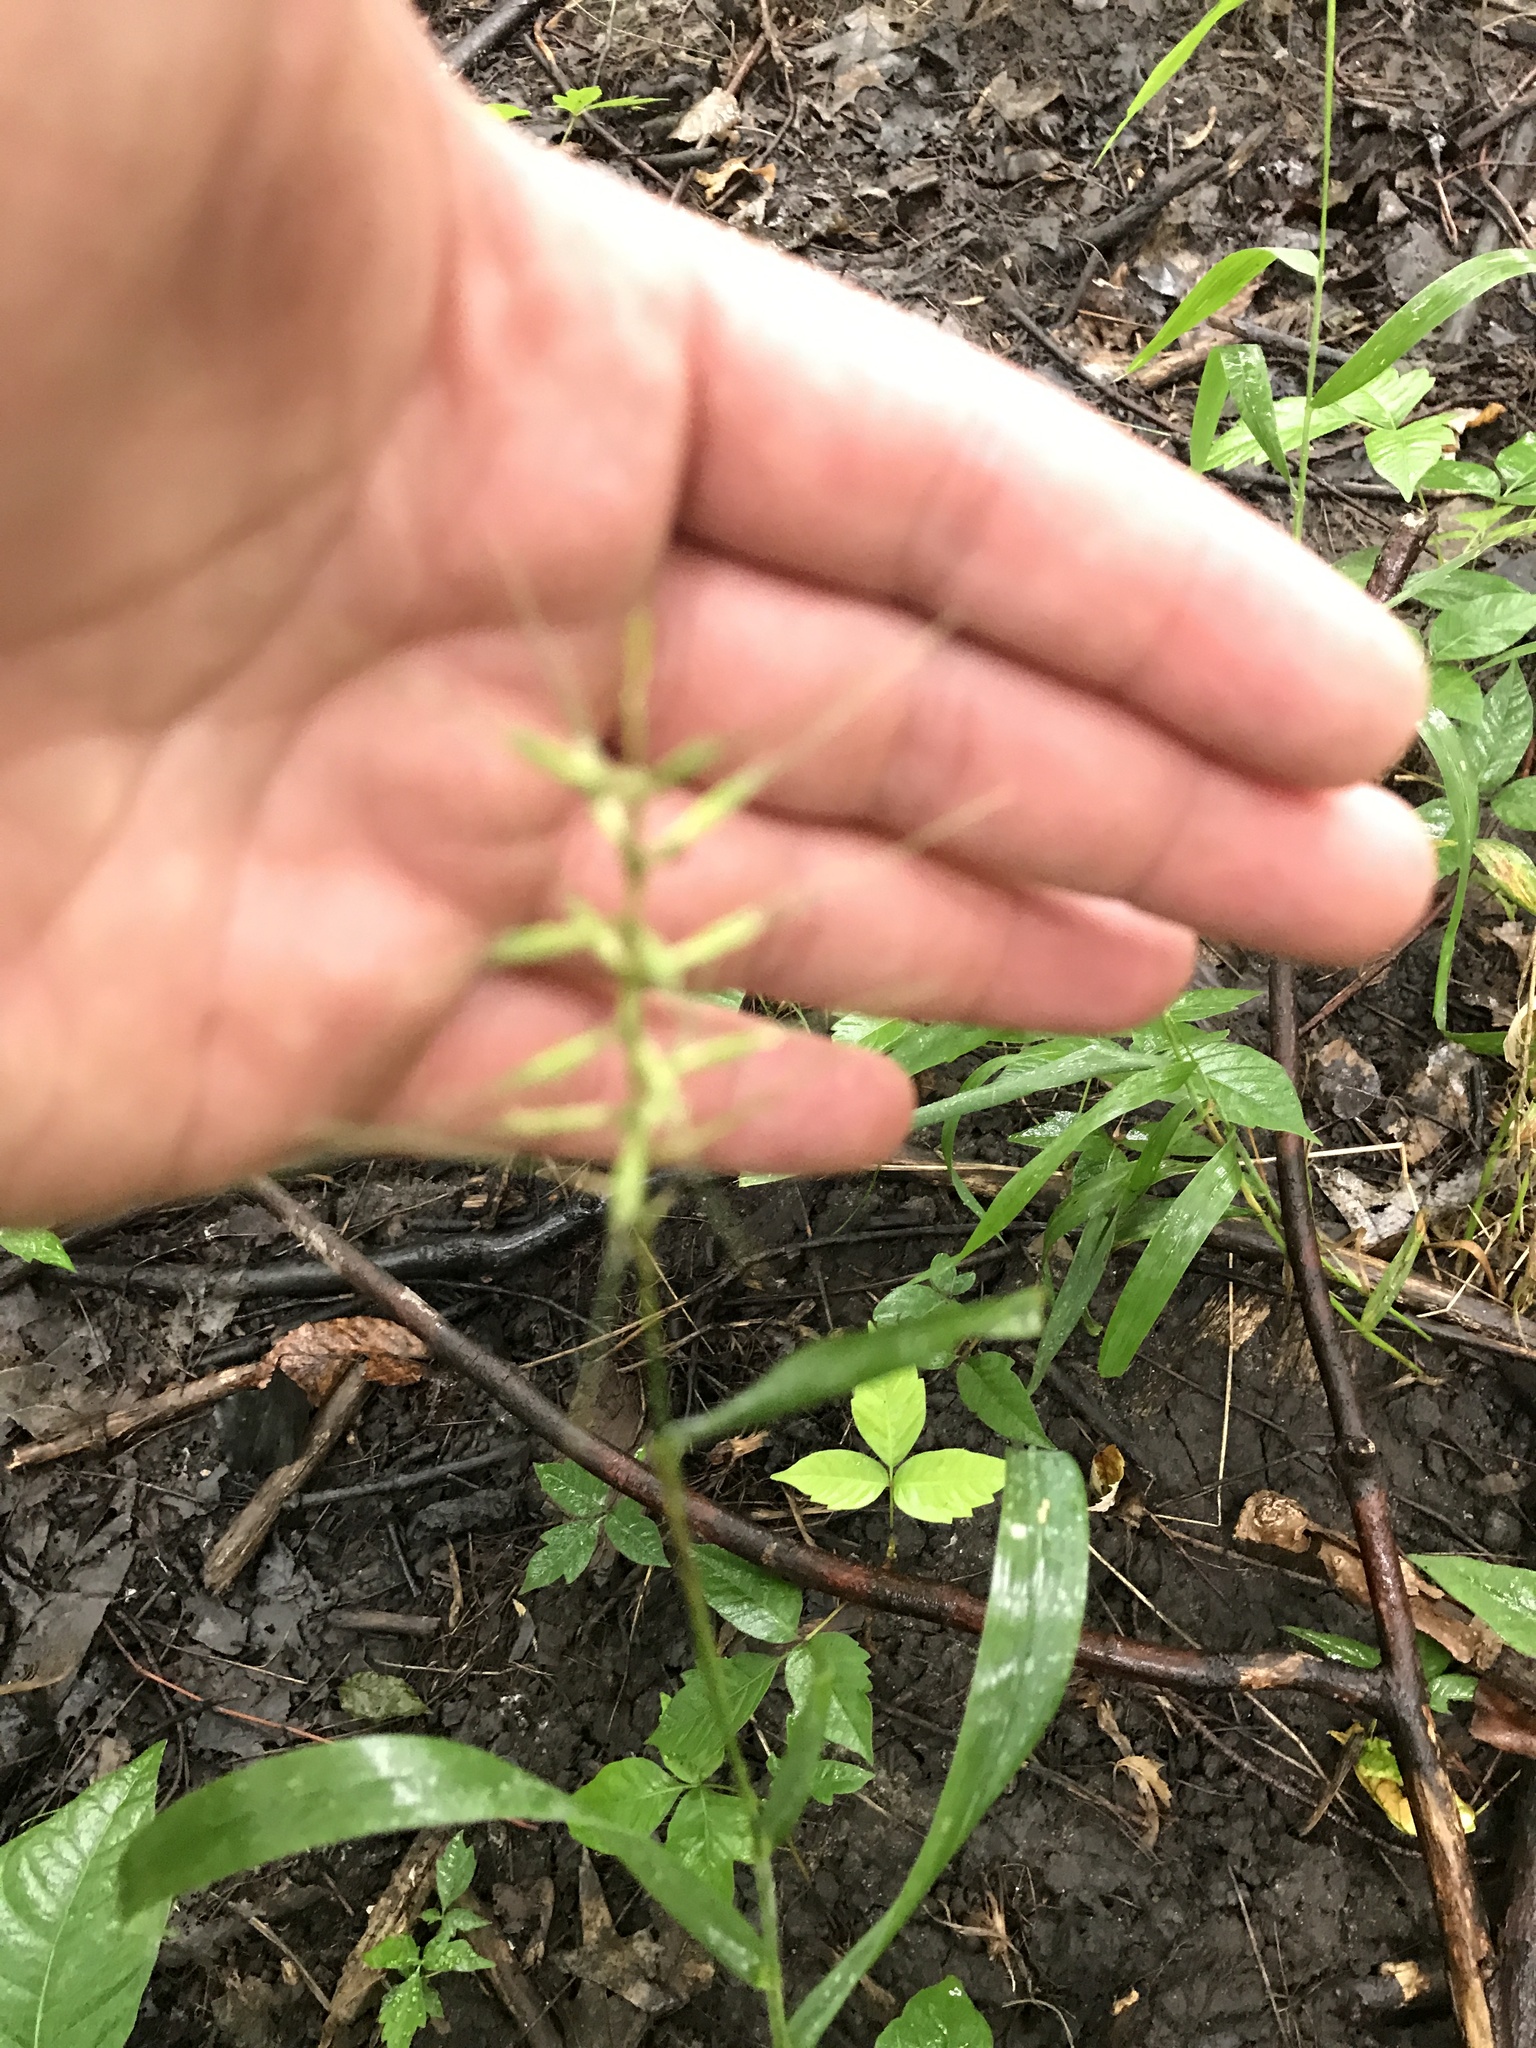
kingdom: Plantae
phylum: Tracheophyta
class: Liliopsida
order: Poales
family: Poaceae
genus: Elymus
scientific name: Elymus hystrix
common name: Bottlebrush grass
